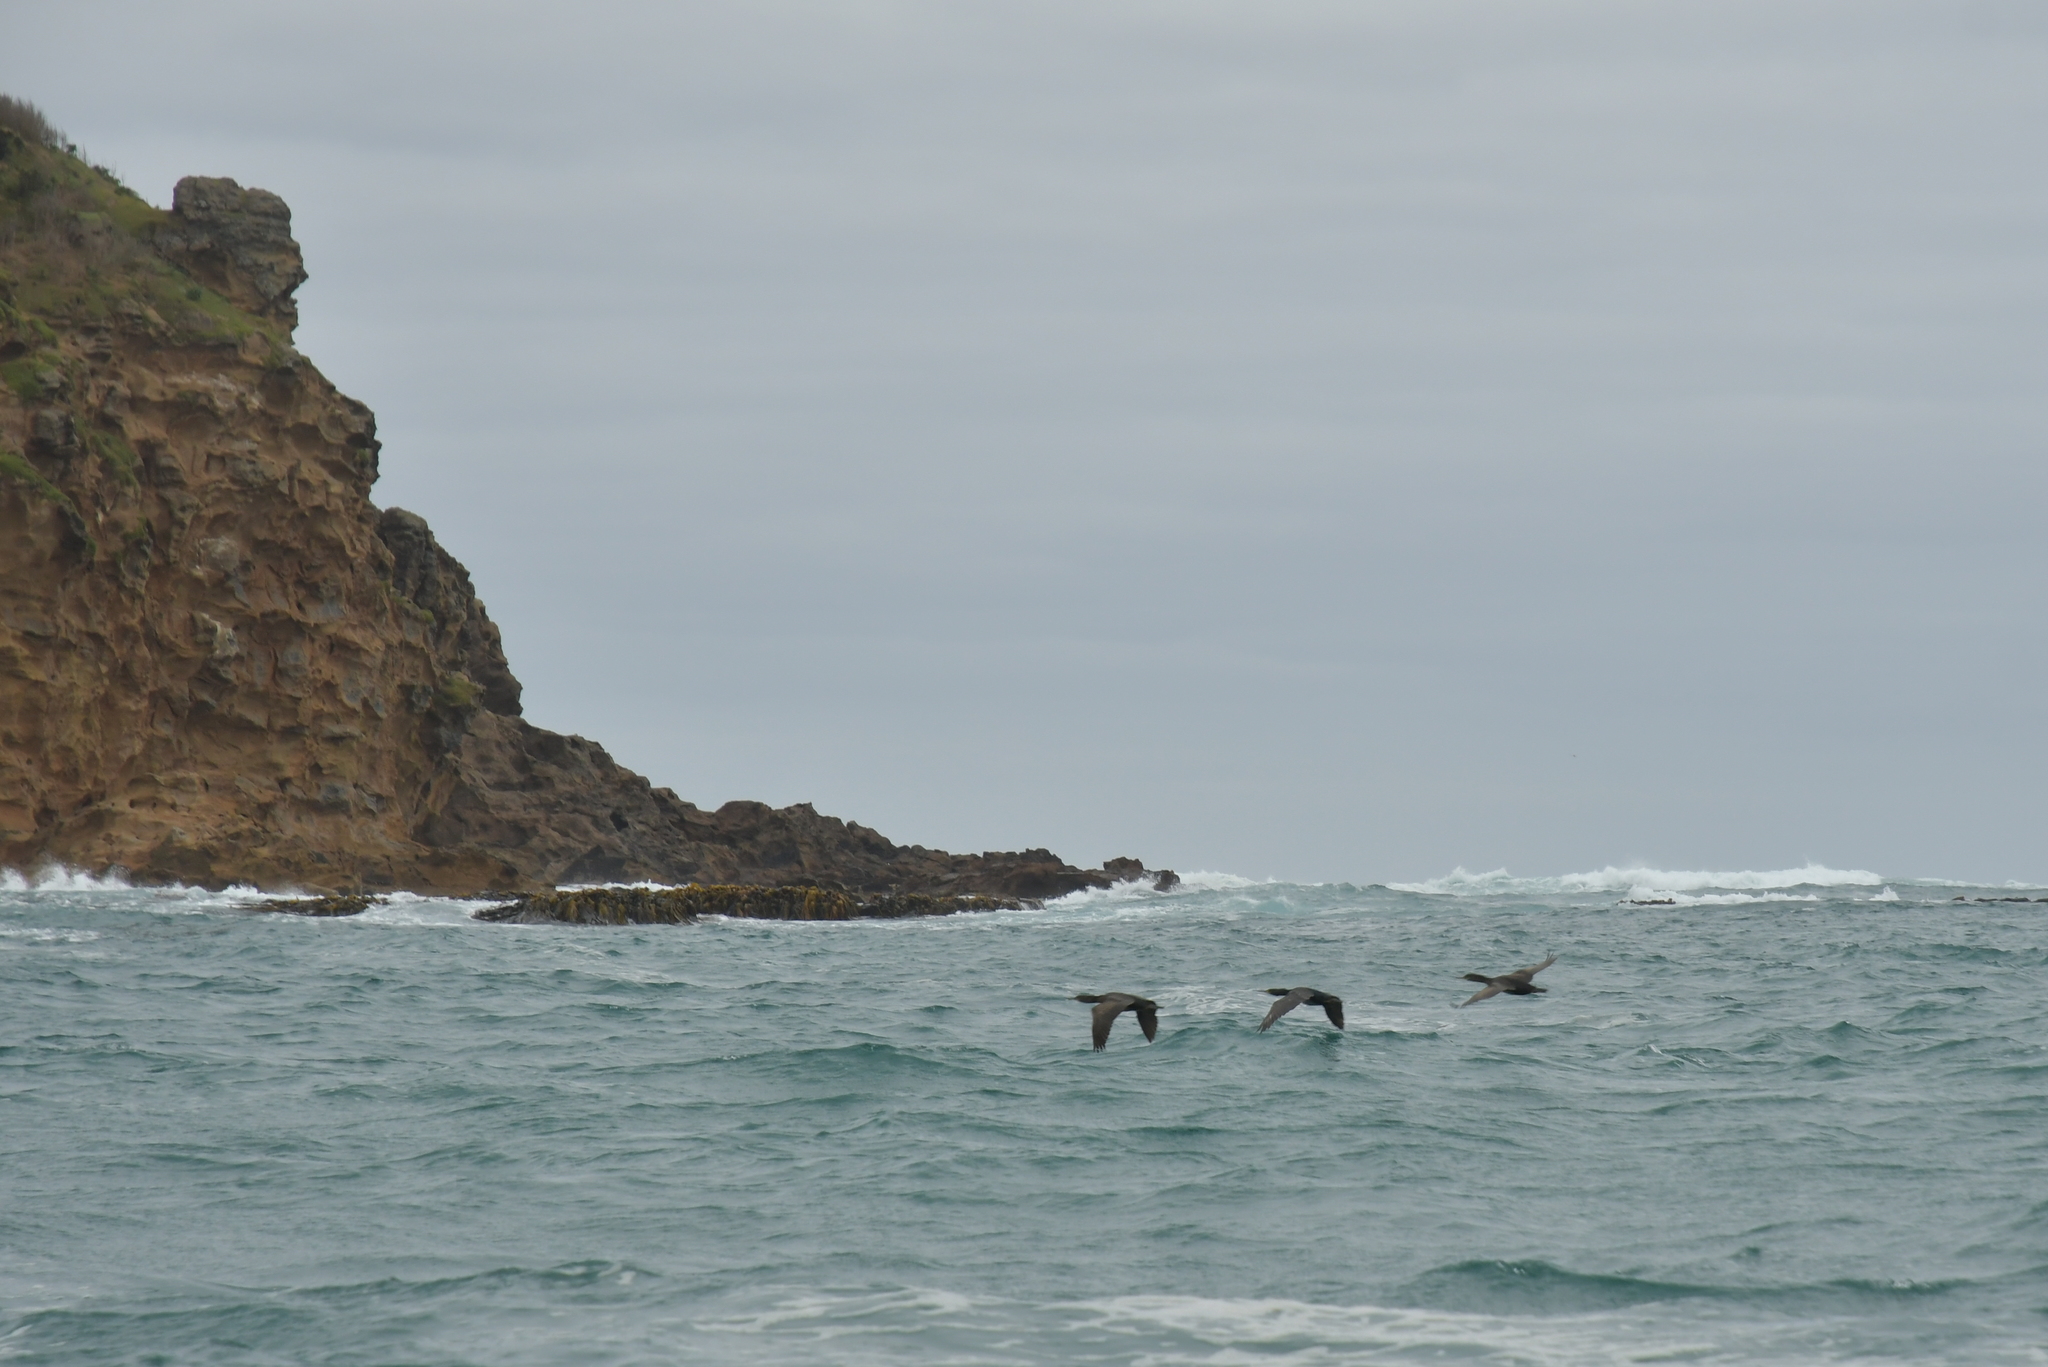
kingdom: Animalia
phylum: Chordata
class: Aves
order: Suliformes
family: Phalacrocoracidae
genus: Leucocarbo
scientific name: Leucocarbo onslowi
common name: Chatham shag
